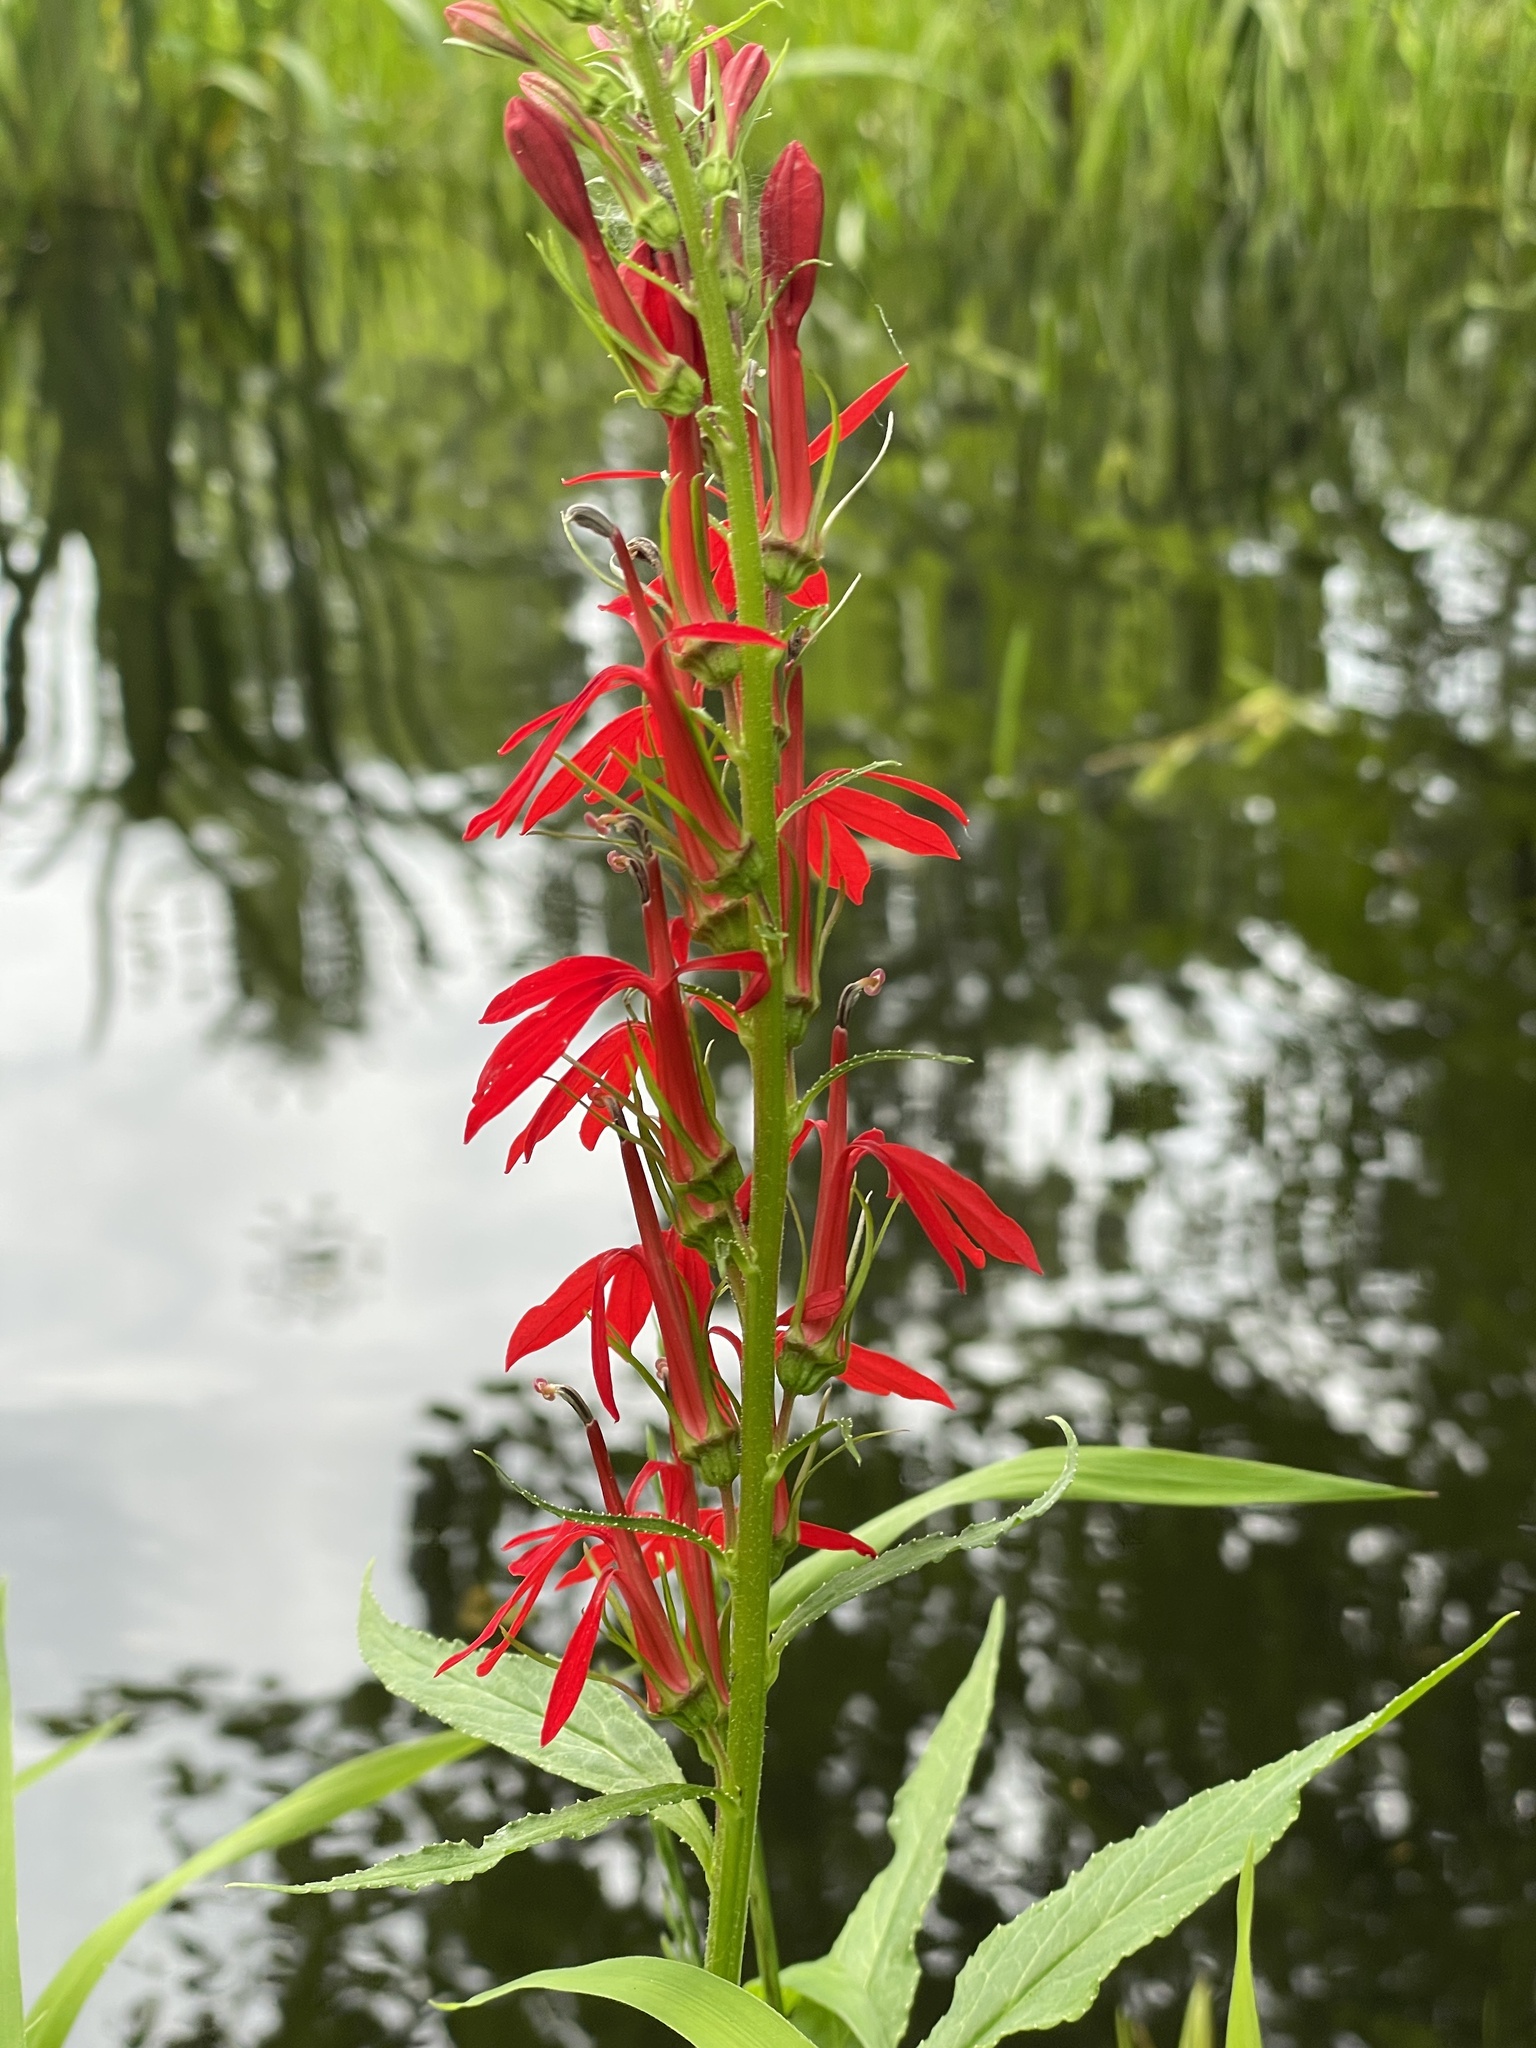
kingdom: Plantae
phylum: Tracheophyta
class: Magnoliopsida
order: Asterales
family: Campanulaceae
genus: Lobelia
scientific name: Lobelia cardinalis
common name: Cardinal flower
